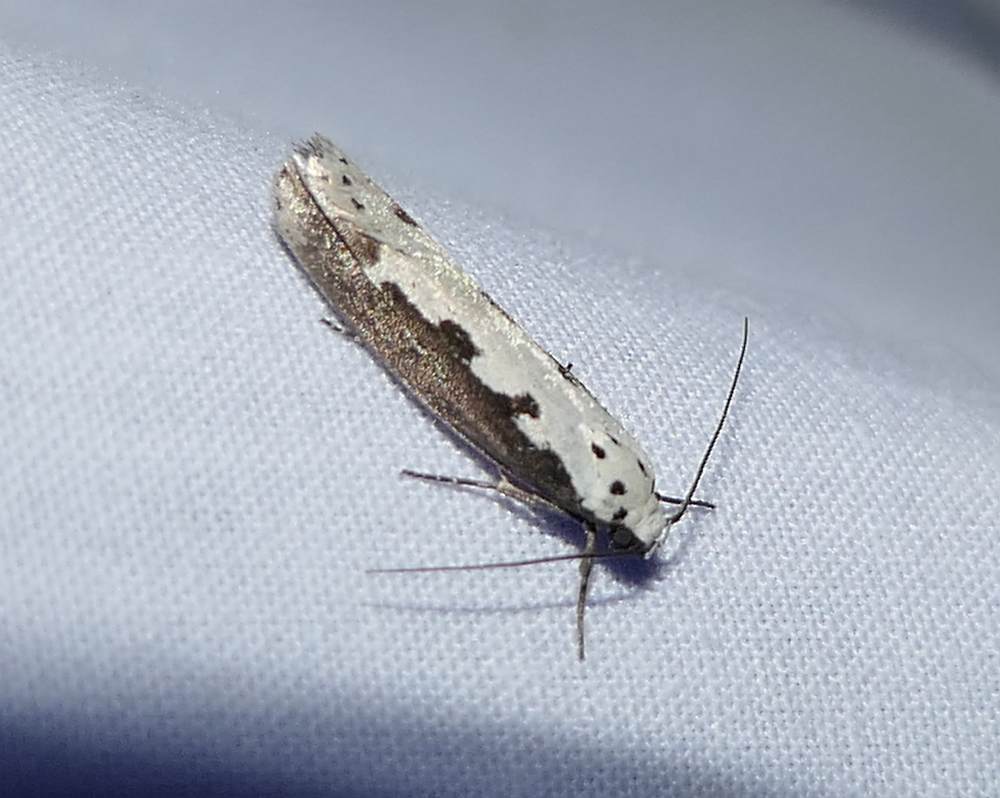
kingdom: Animalia
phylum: Arthropoda
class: Insecta
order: Lepidoptera
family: Ethmiidae
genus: Ethmia
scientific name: Ethmia bipunctella
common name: Bordered ermel
